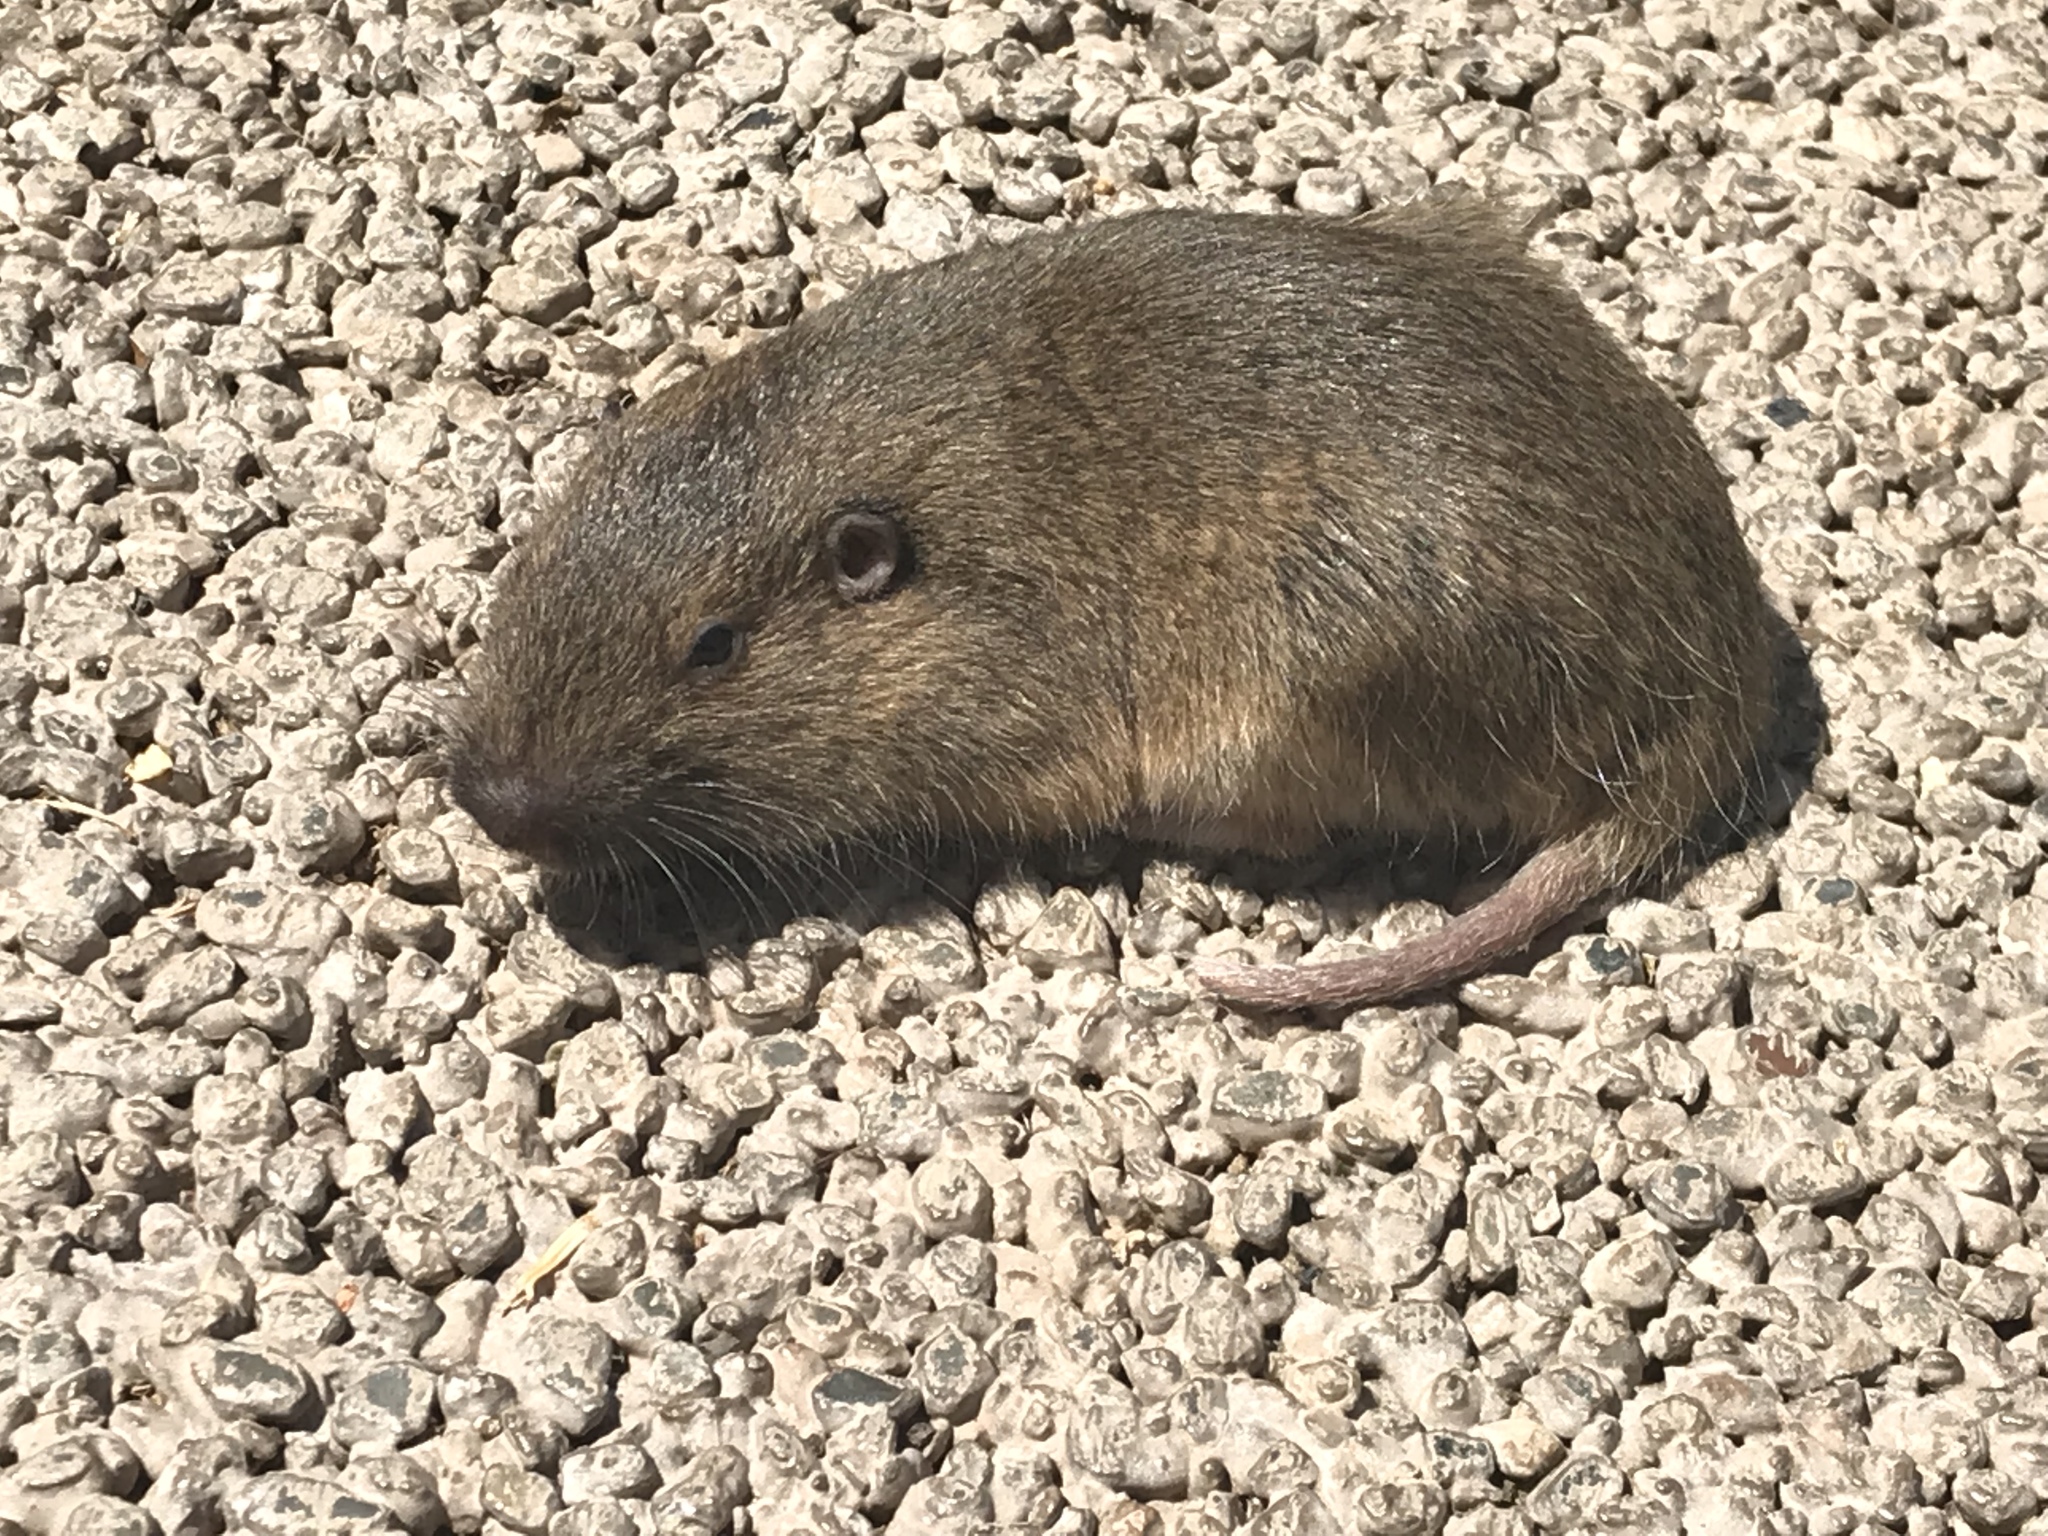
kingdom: Animalia
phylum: Chordata
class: Mammalia
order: Rodentia
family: Geomyidae
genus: Thomomys
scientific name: Thomomys bottae
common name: Botta's pocket gopher
